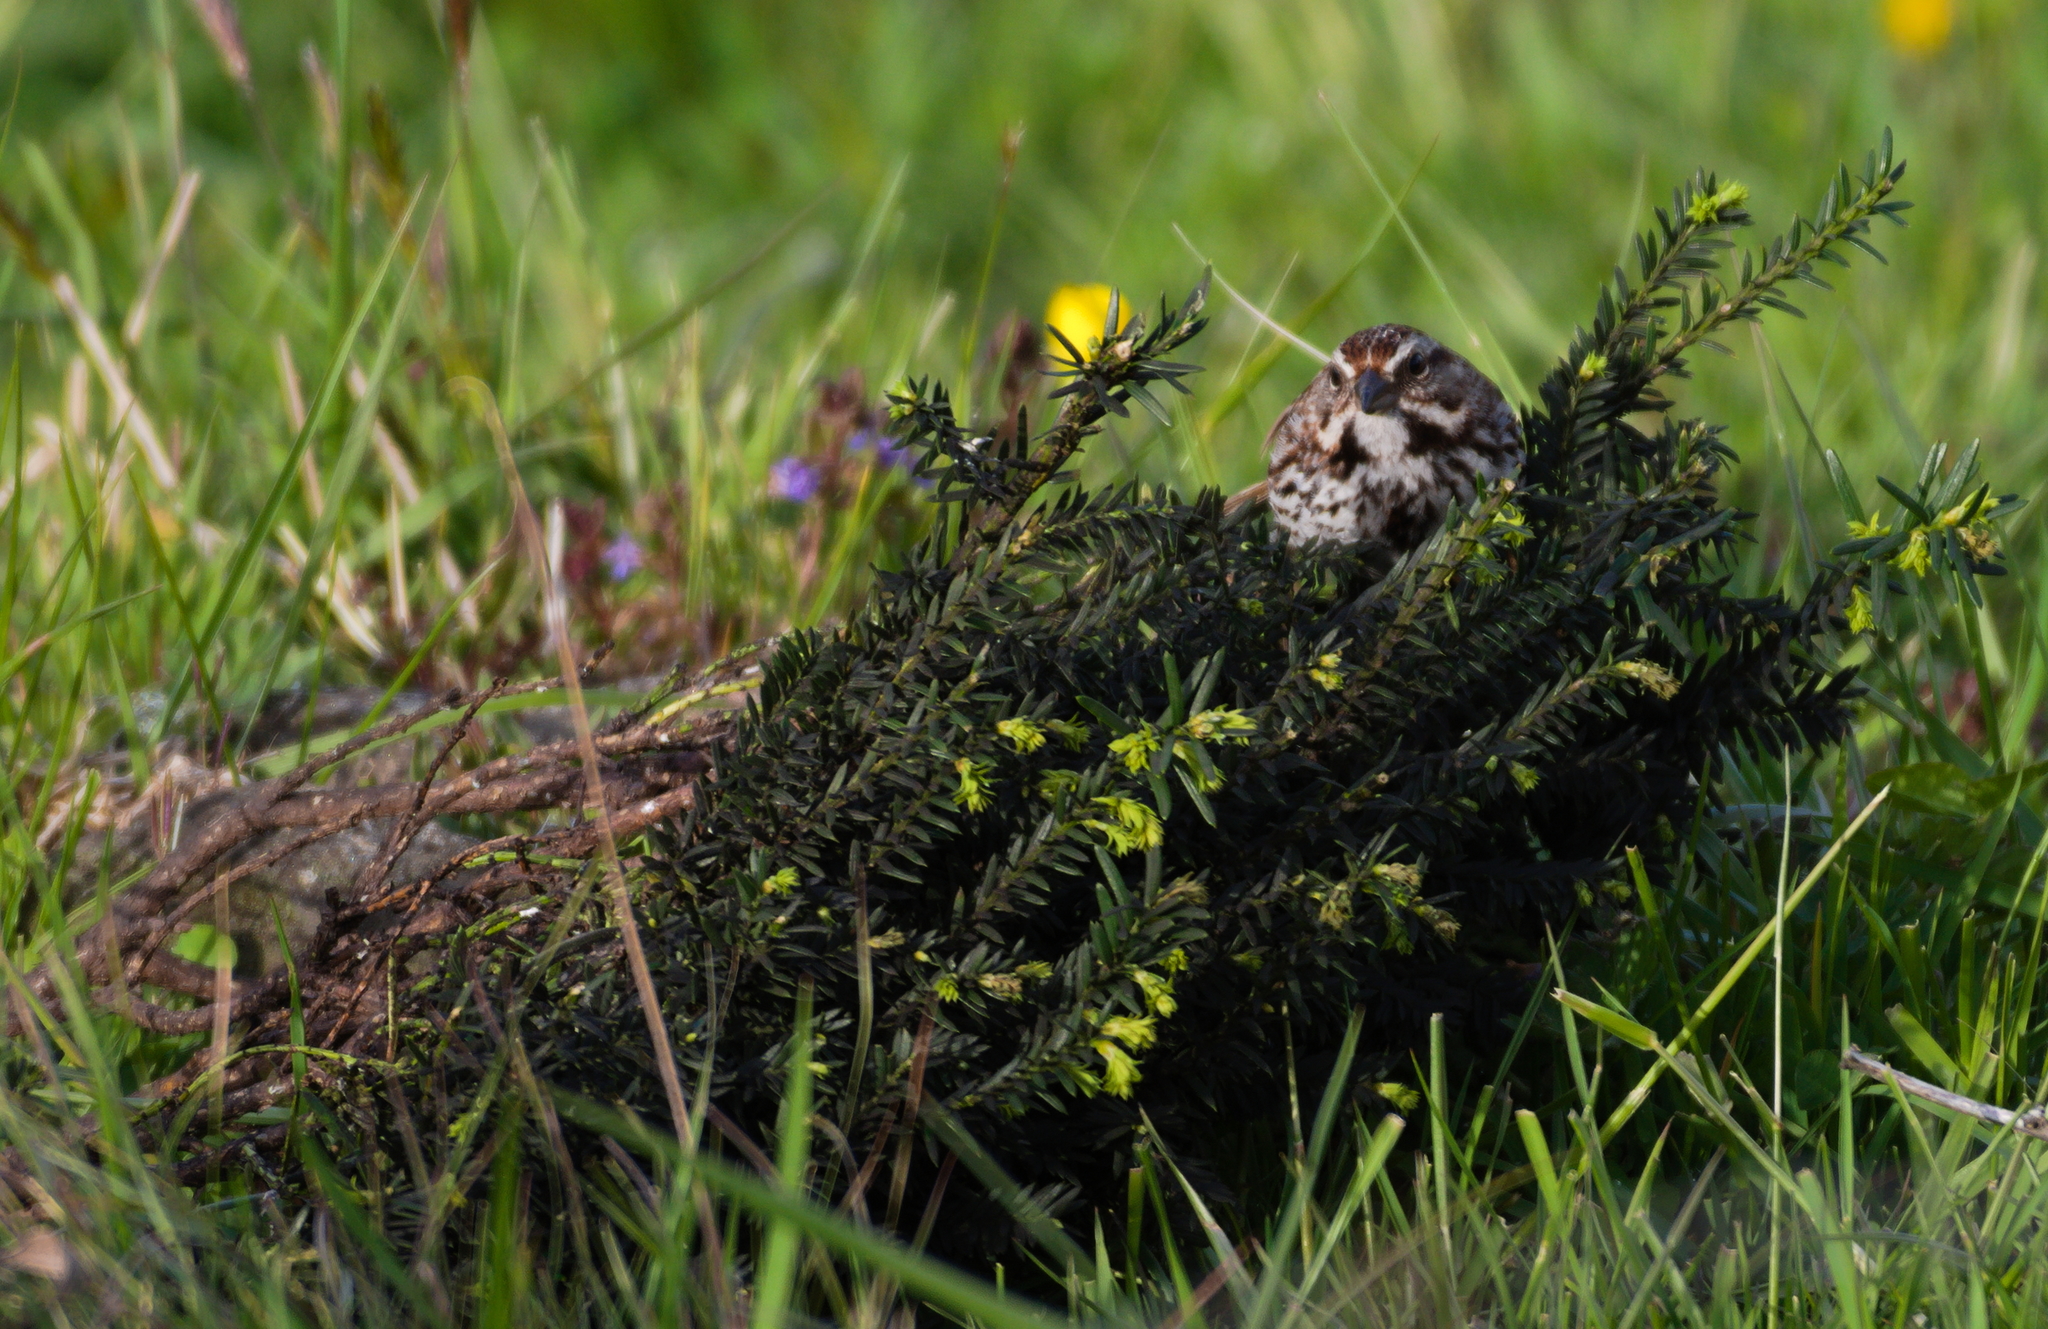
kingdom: Animalia
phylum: Chordata
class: Aves
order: Passeriformes
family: Passerellidae
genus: Melospiza
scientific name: Melospiza melodia
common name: Song sparrow
